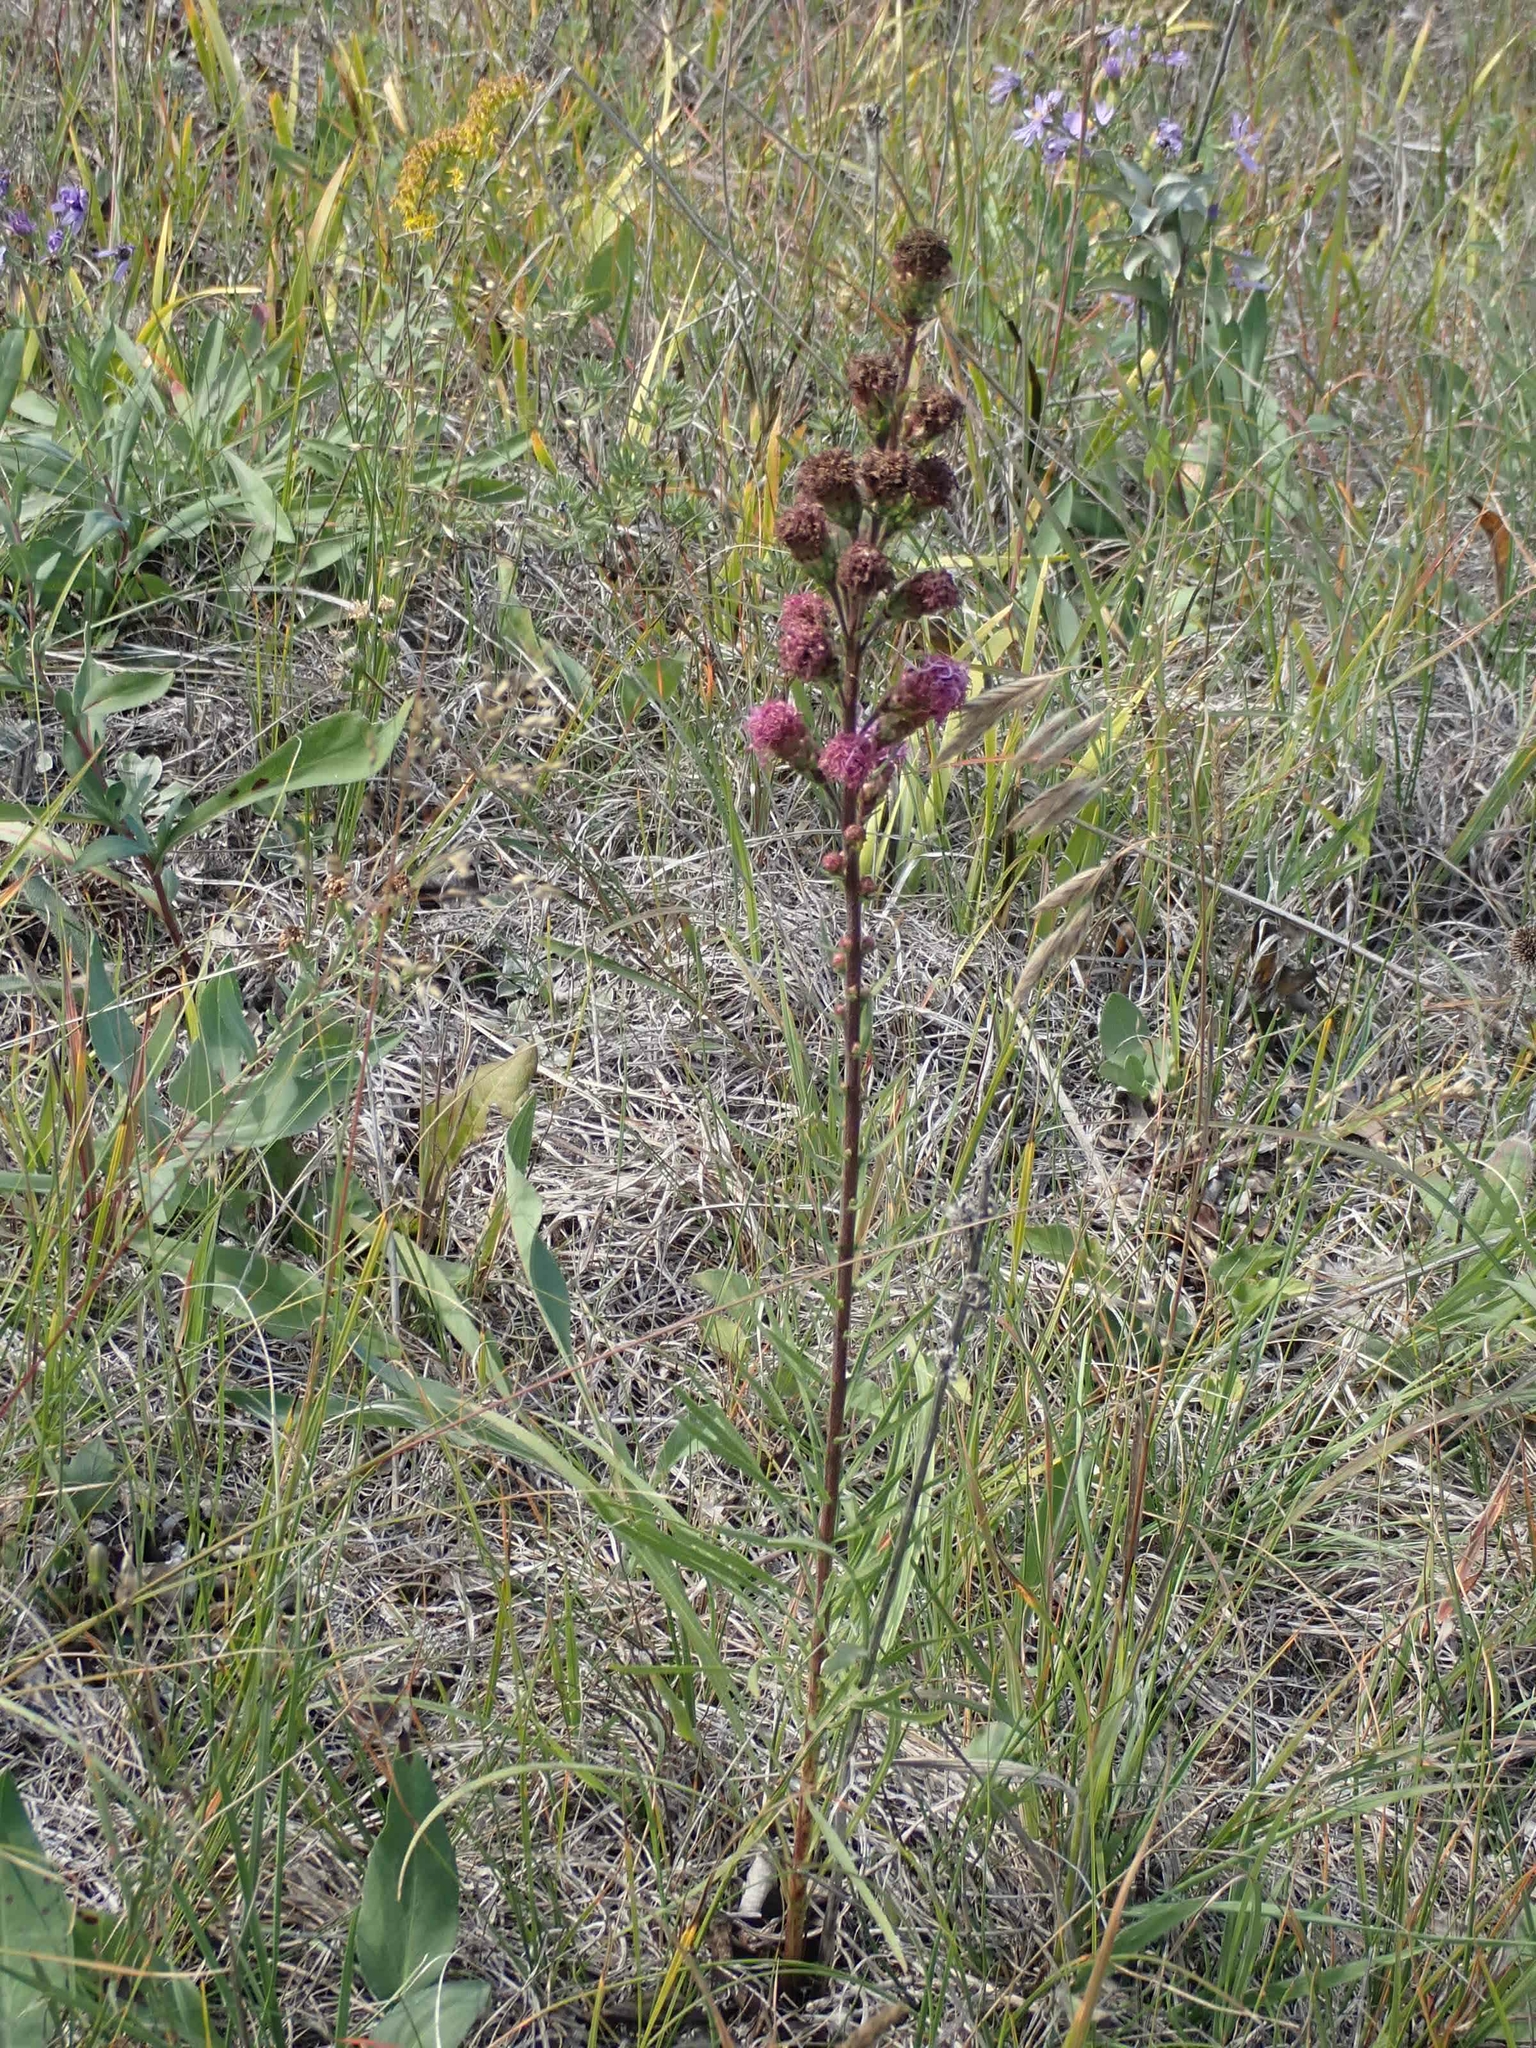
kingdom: Plantae
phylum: Tracheophyta
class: Magnoliopsida
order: Asterales
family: Asteraceae
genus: Liatris
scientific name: Liatris ligulistylis
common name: Northern plains gayfeather
